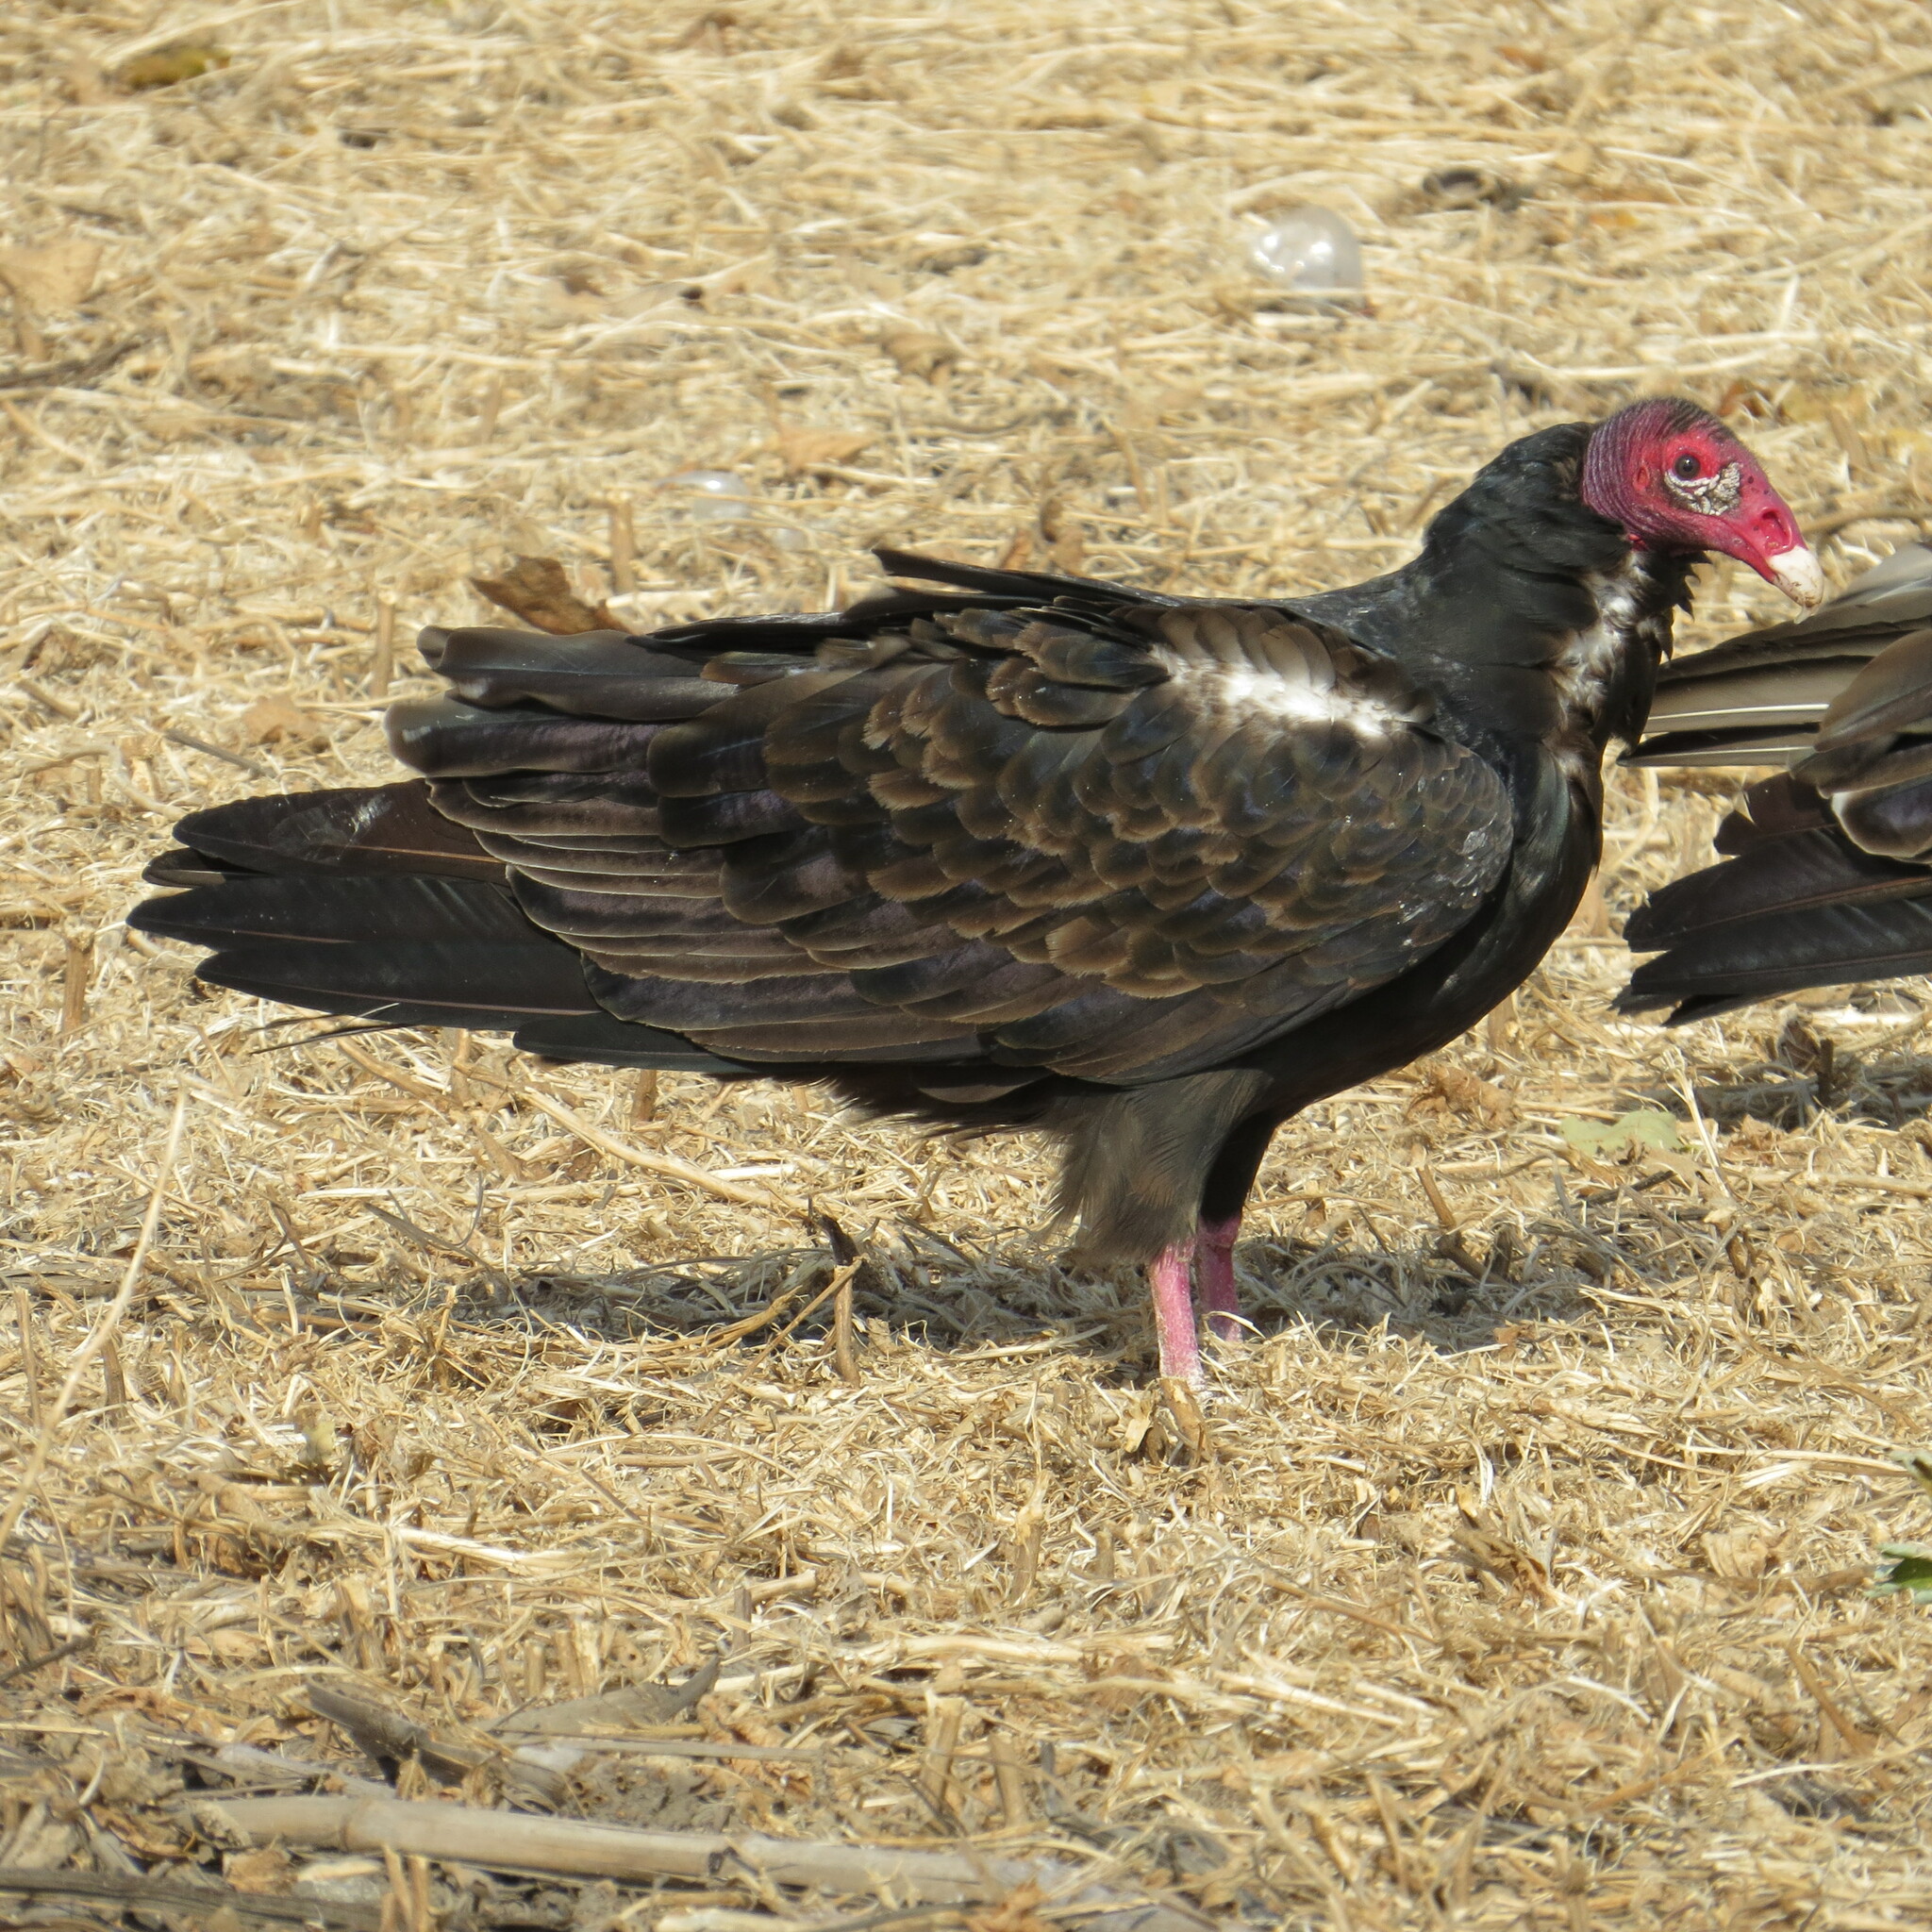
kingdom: Animalia
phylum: Chordata
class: Aves
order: Accipitriformes
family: Cathartidae
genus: Cathartes
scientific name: Cathartes aura
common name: Turkey vulture
